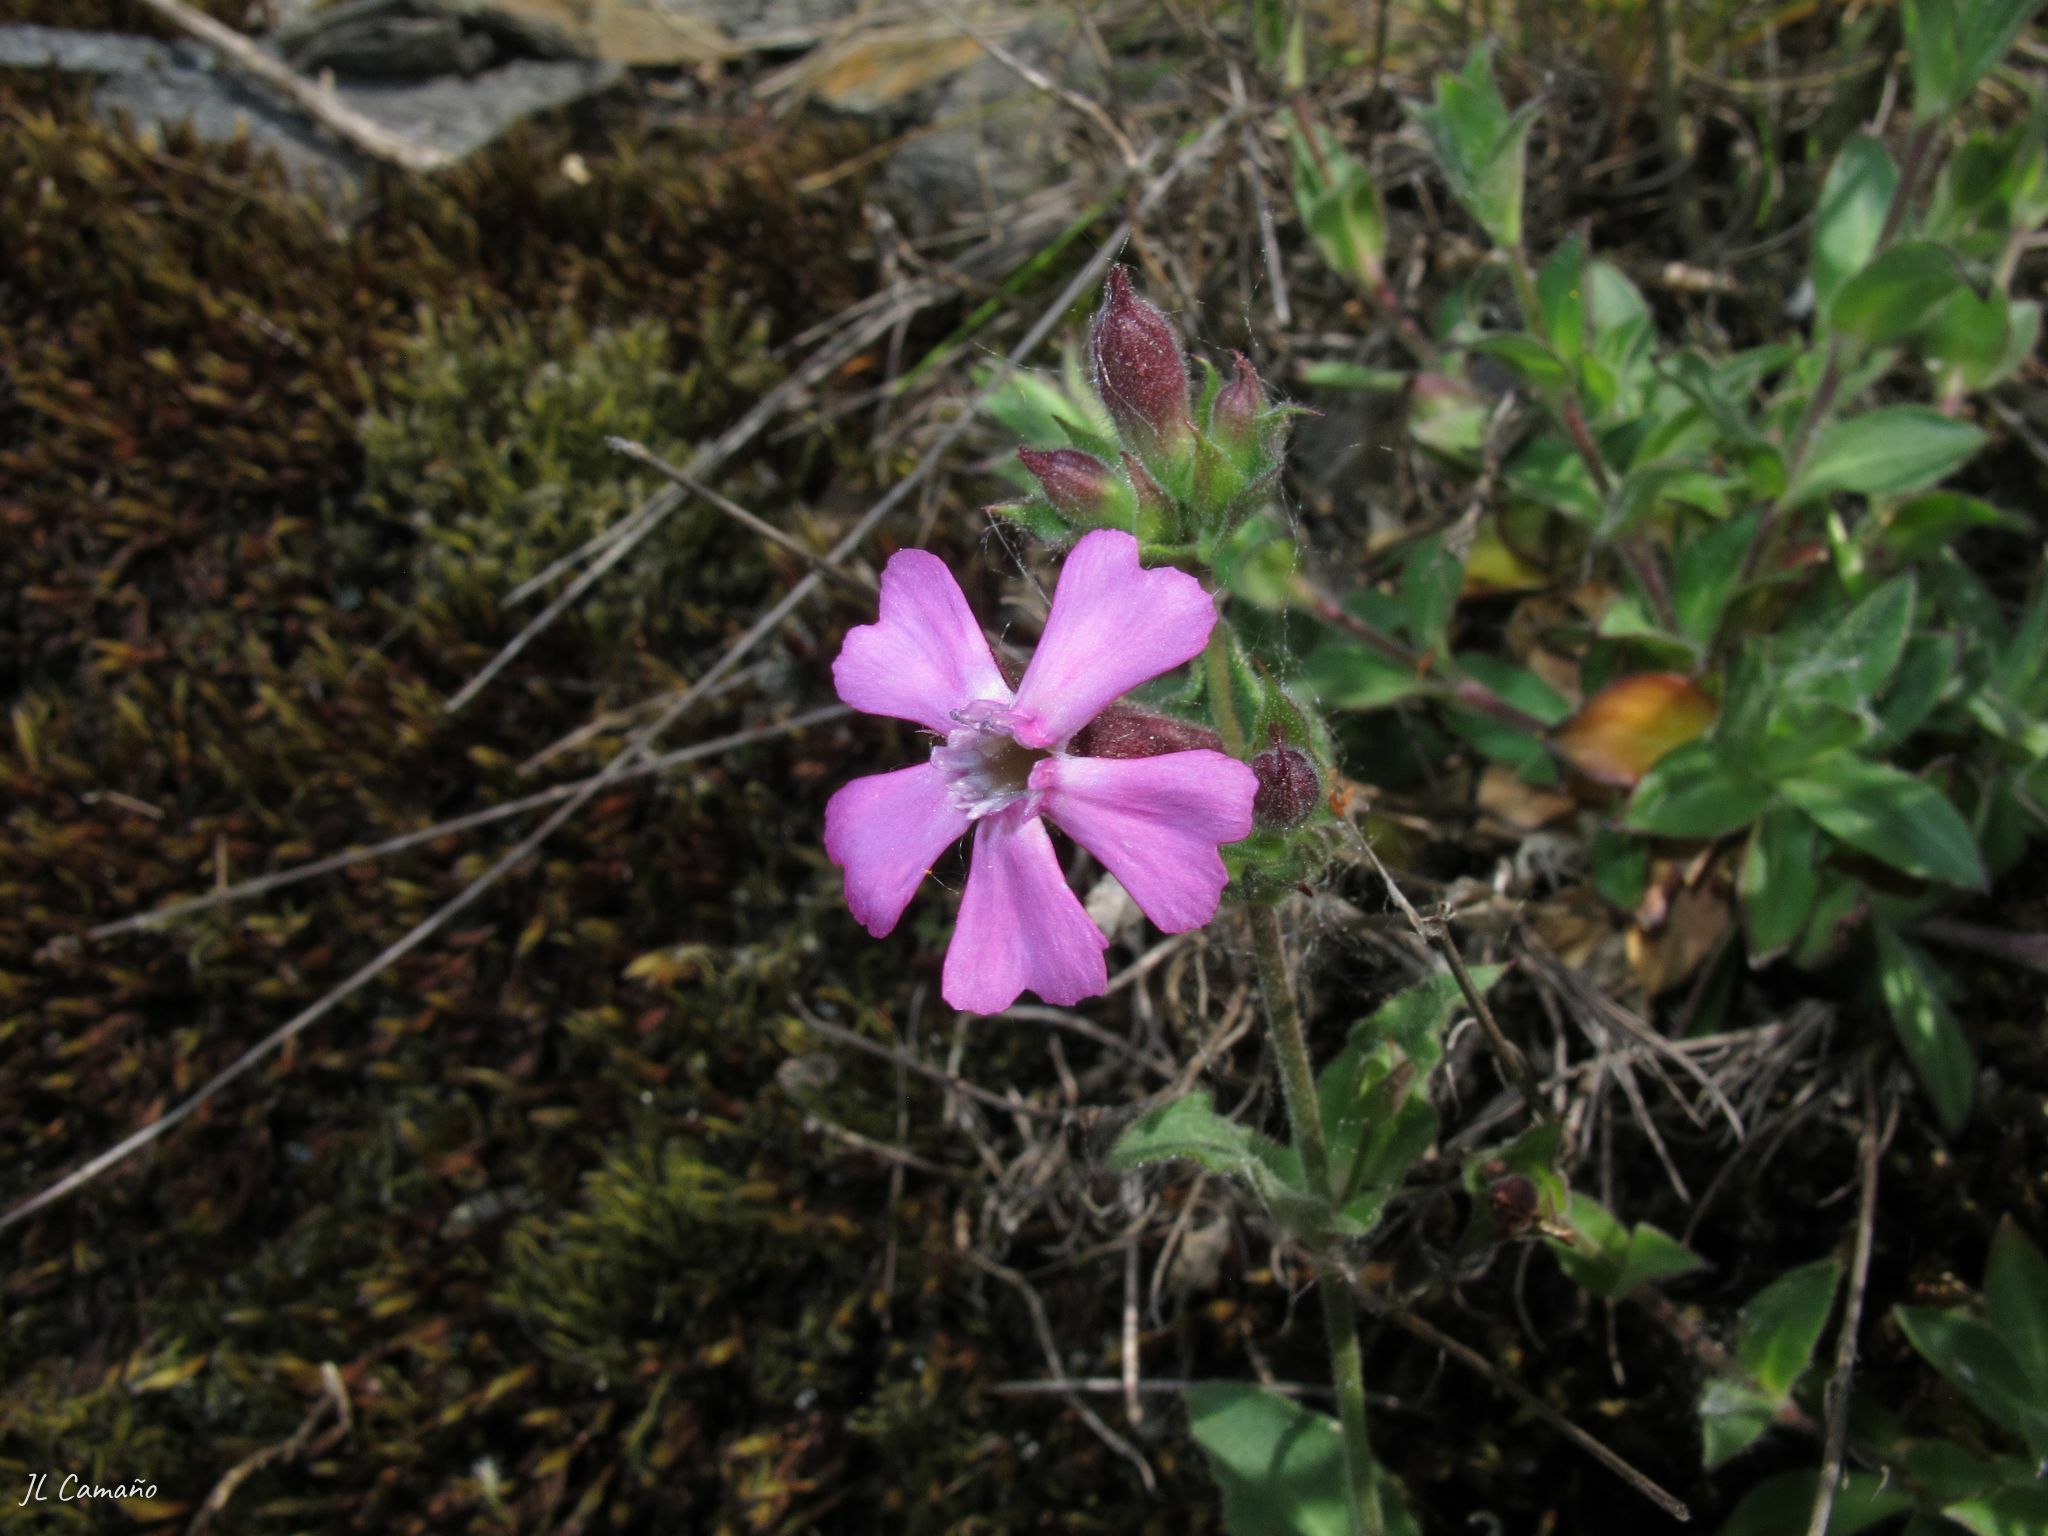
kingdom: Plantae
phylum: Tracheophyta
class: Magnoliopsida
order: Caryophyllales
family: Caryophyllaceae
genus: Silene
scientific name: Silene acutifolia
